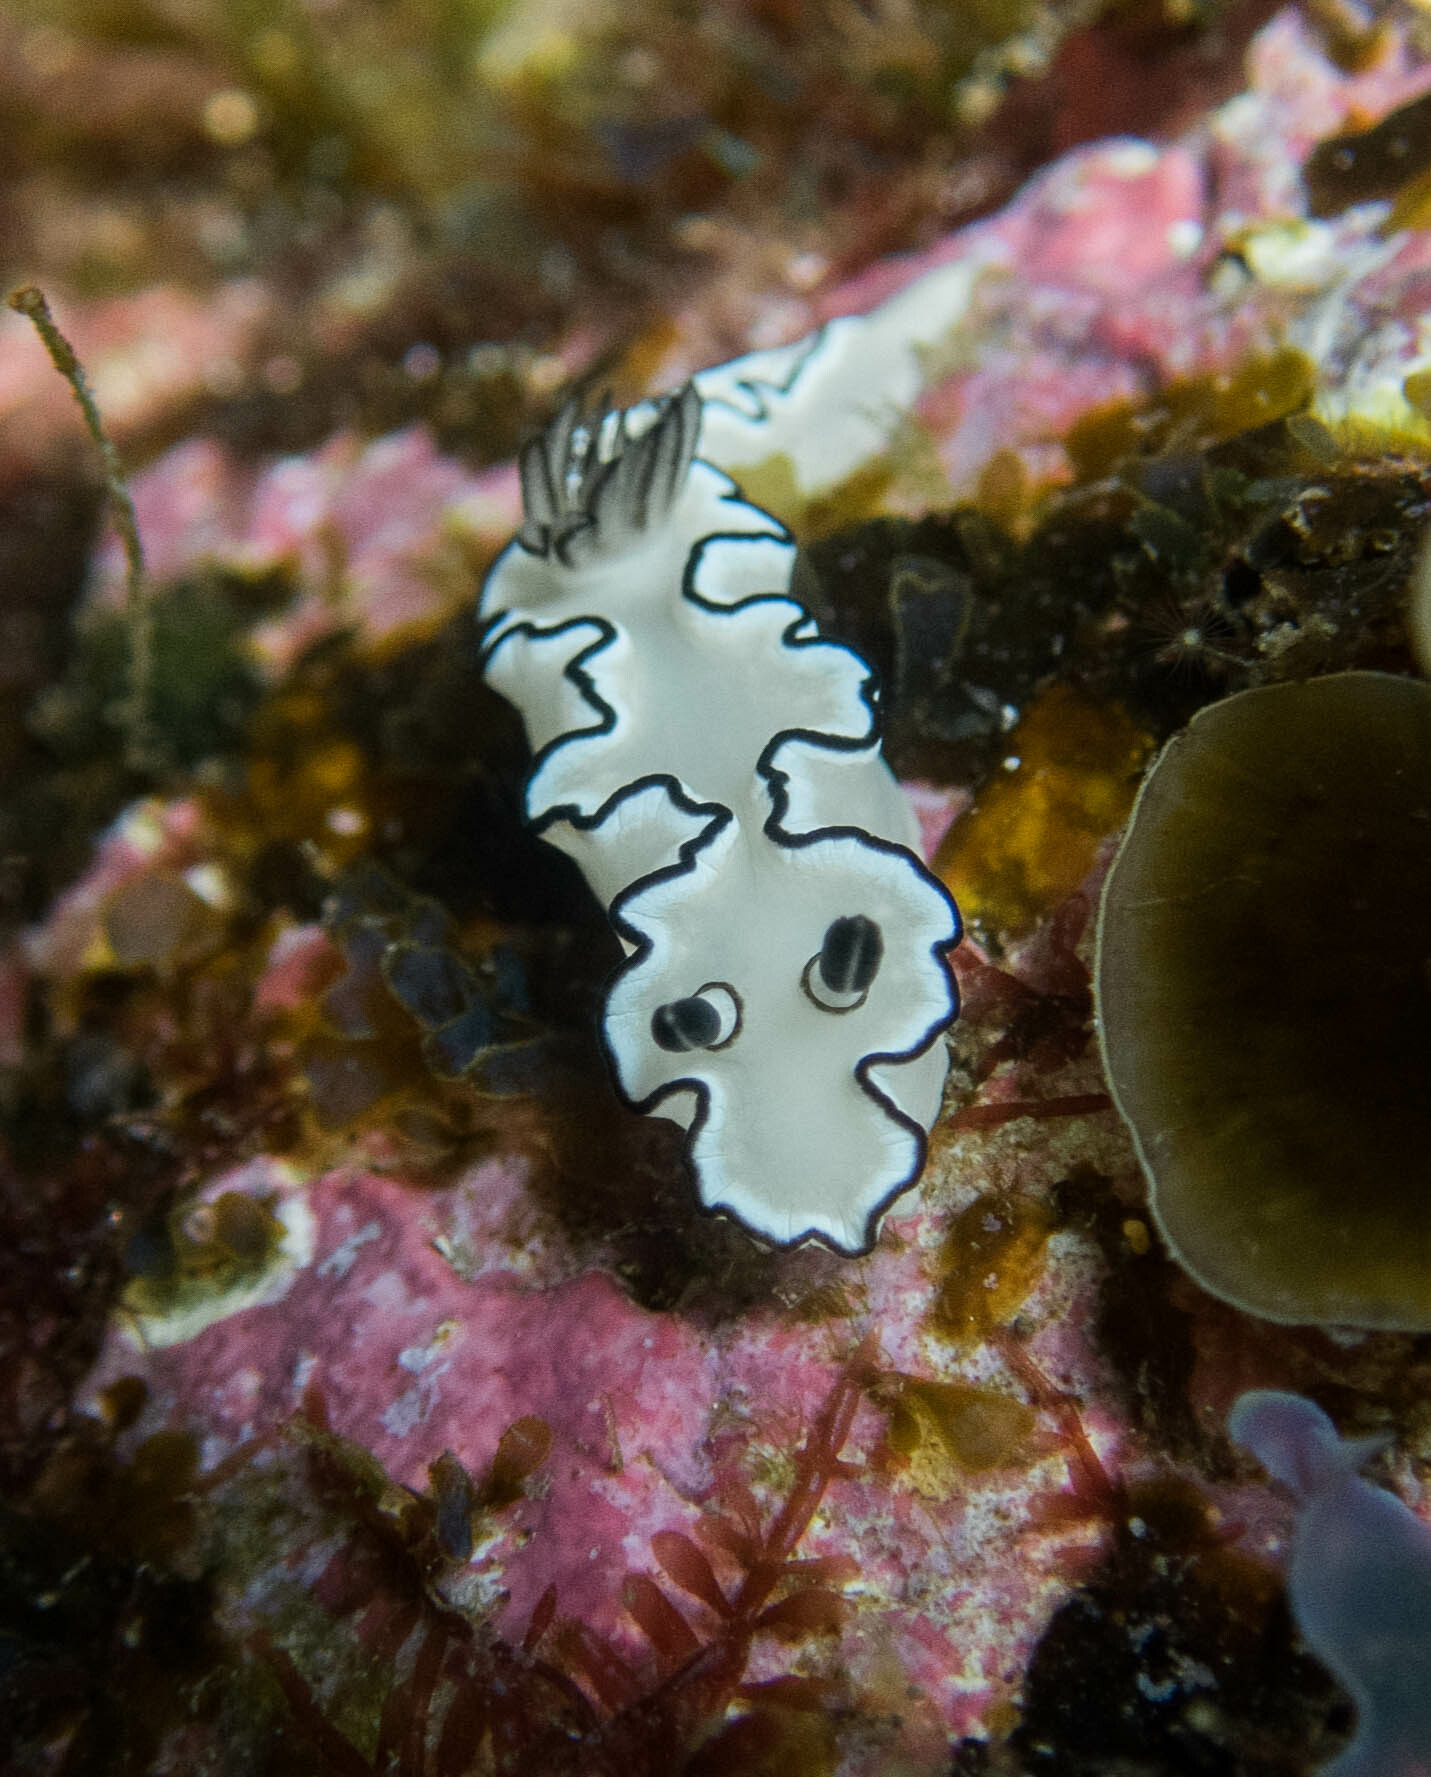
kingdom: Animalia
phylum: Mollusca
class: Gastropoda
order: Nudibranchia
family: Chromodorididae
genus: Doriprismatica
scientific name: Doriprismatica atromarginata
